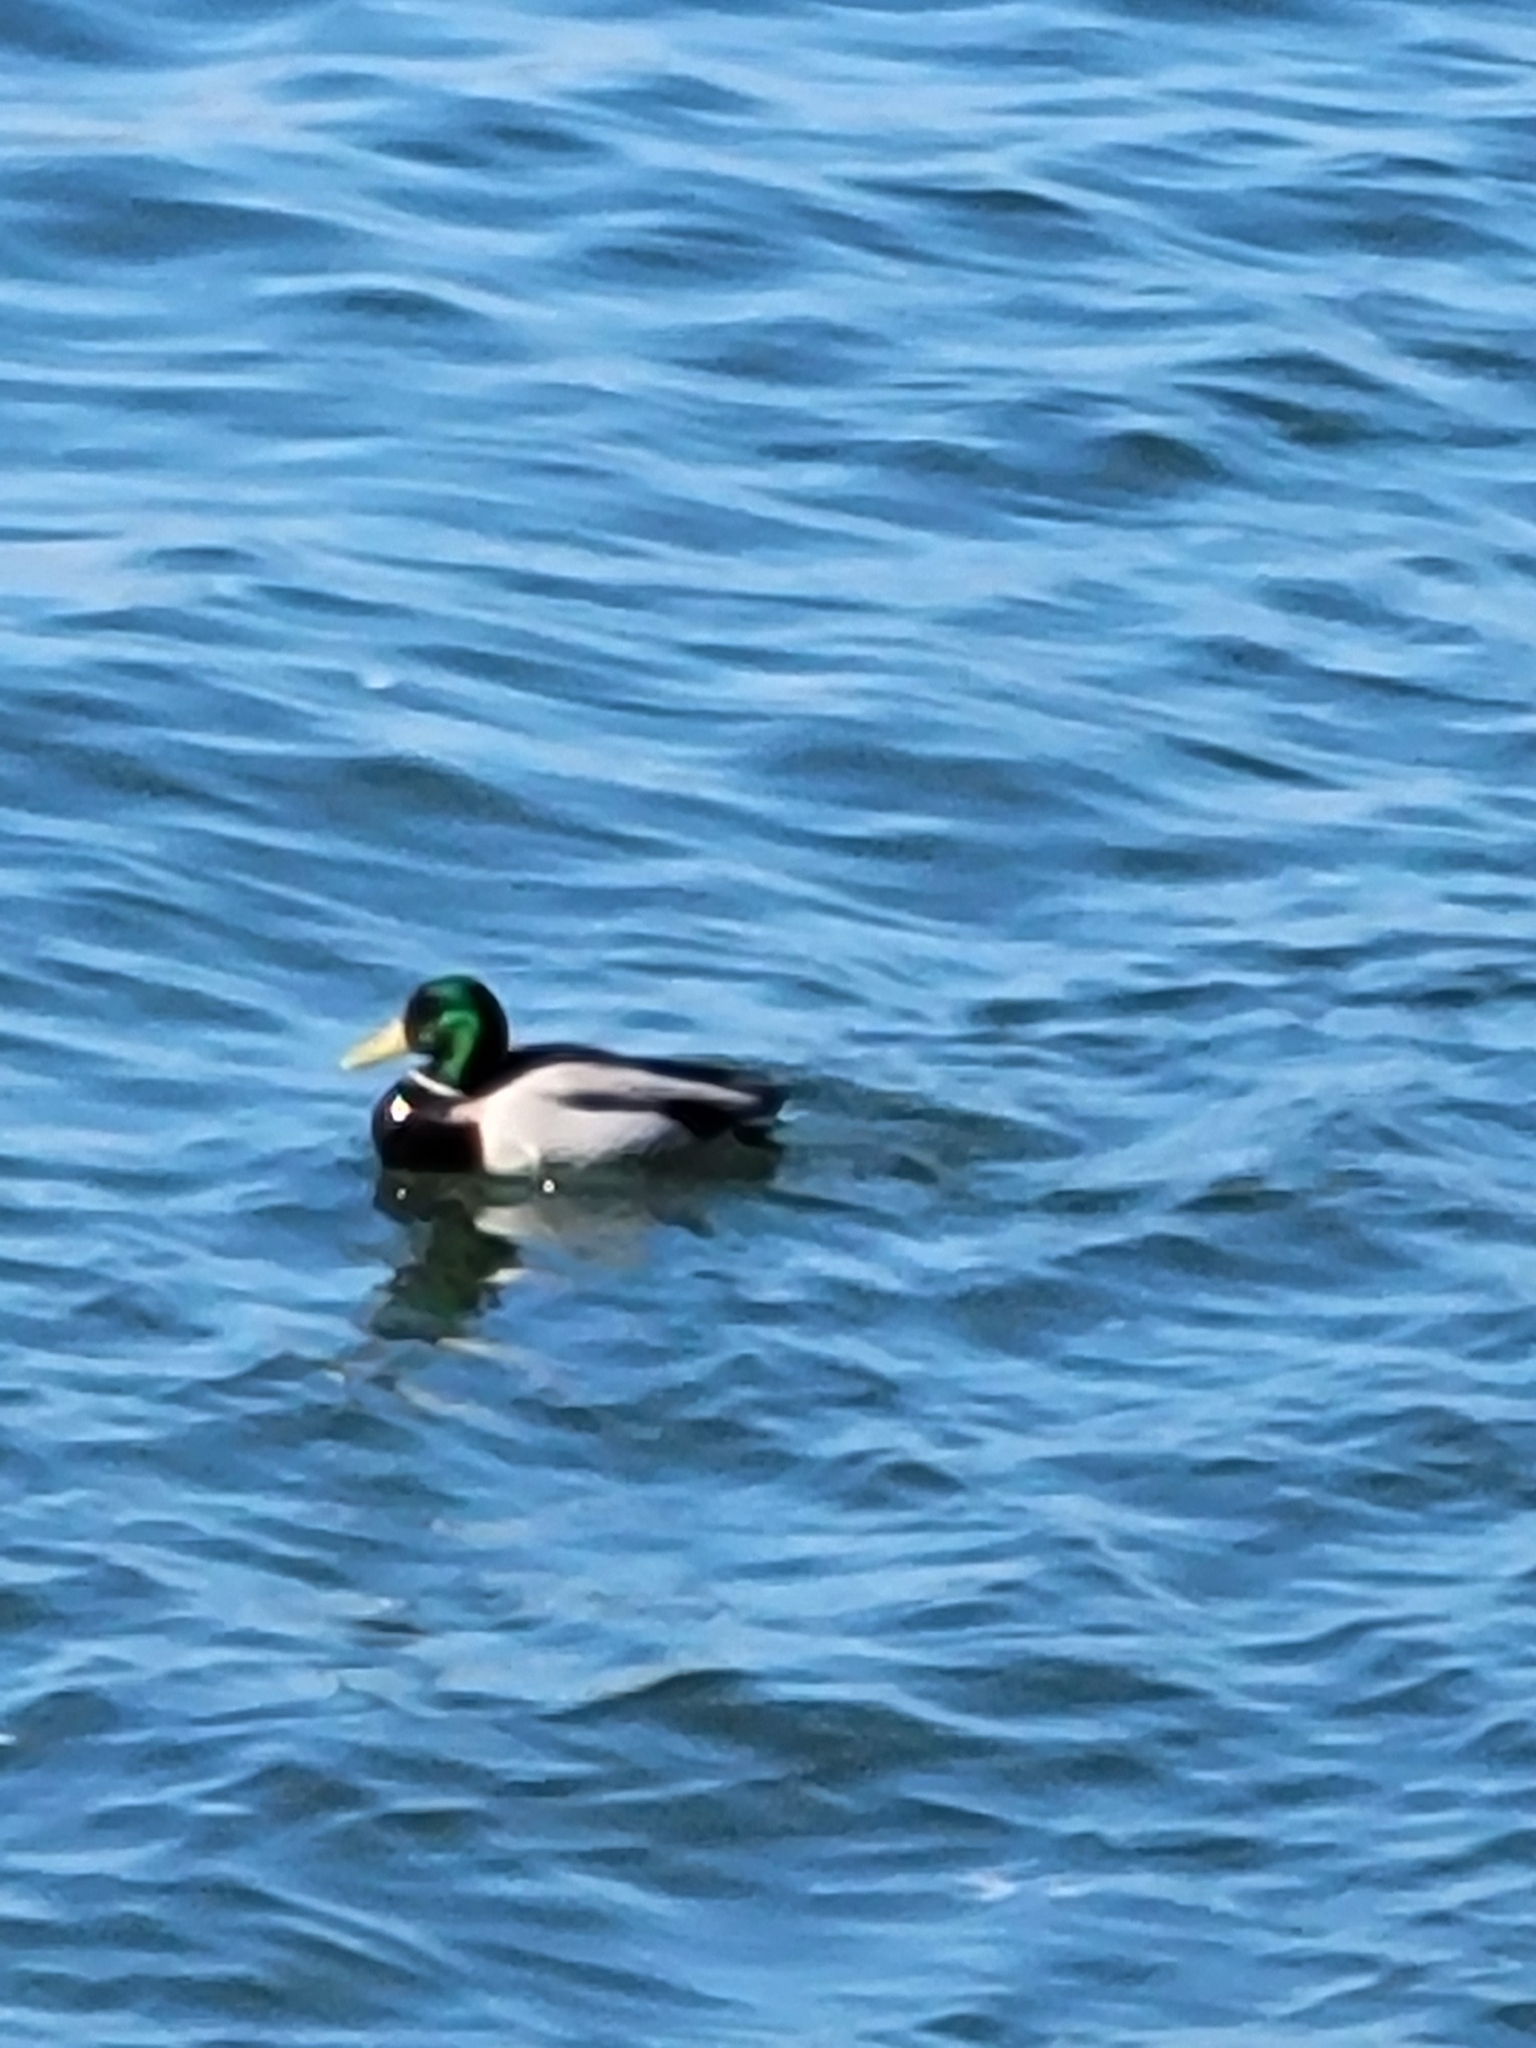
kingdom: Animalia
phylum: Chordata
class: Aves
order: Anseriformes
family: Anatidae
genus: Anas
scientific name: Anas platyrhynchos
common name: Mallard
